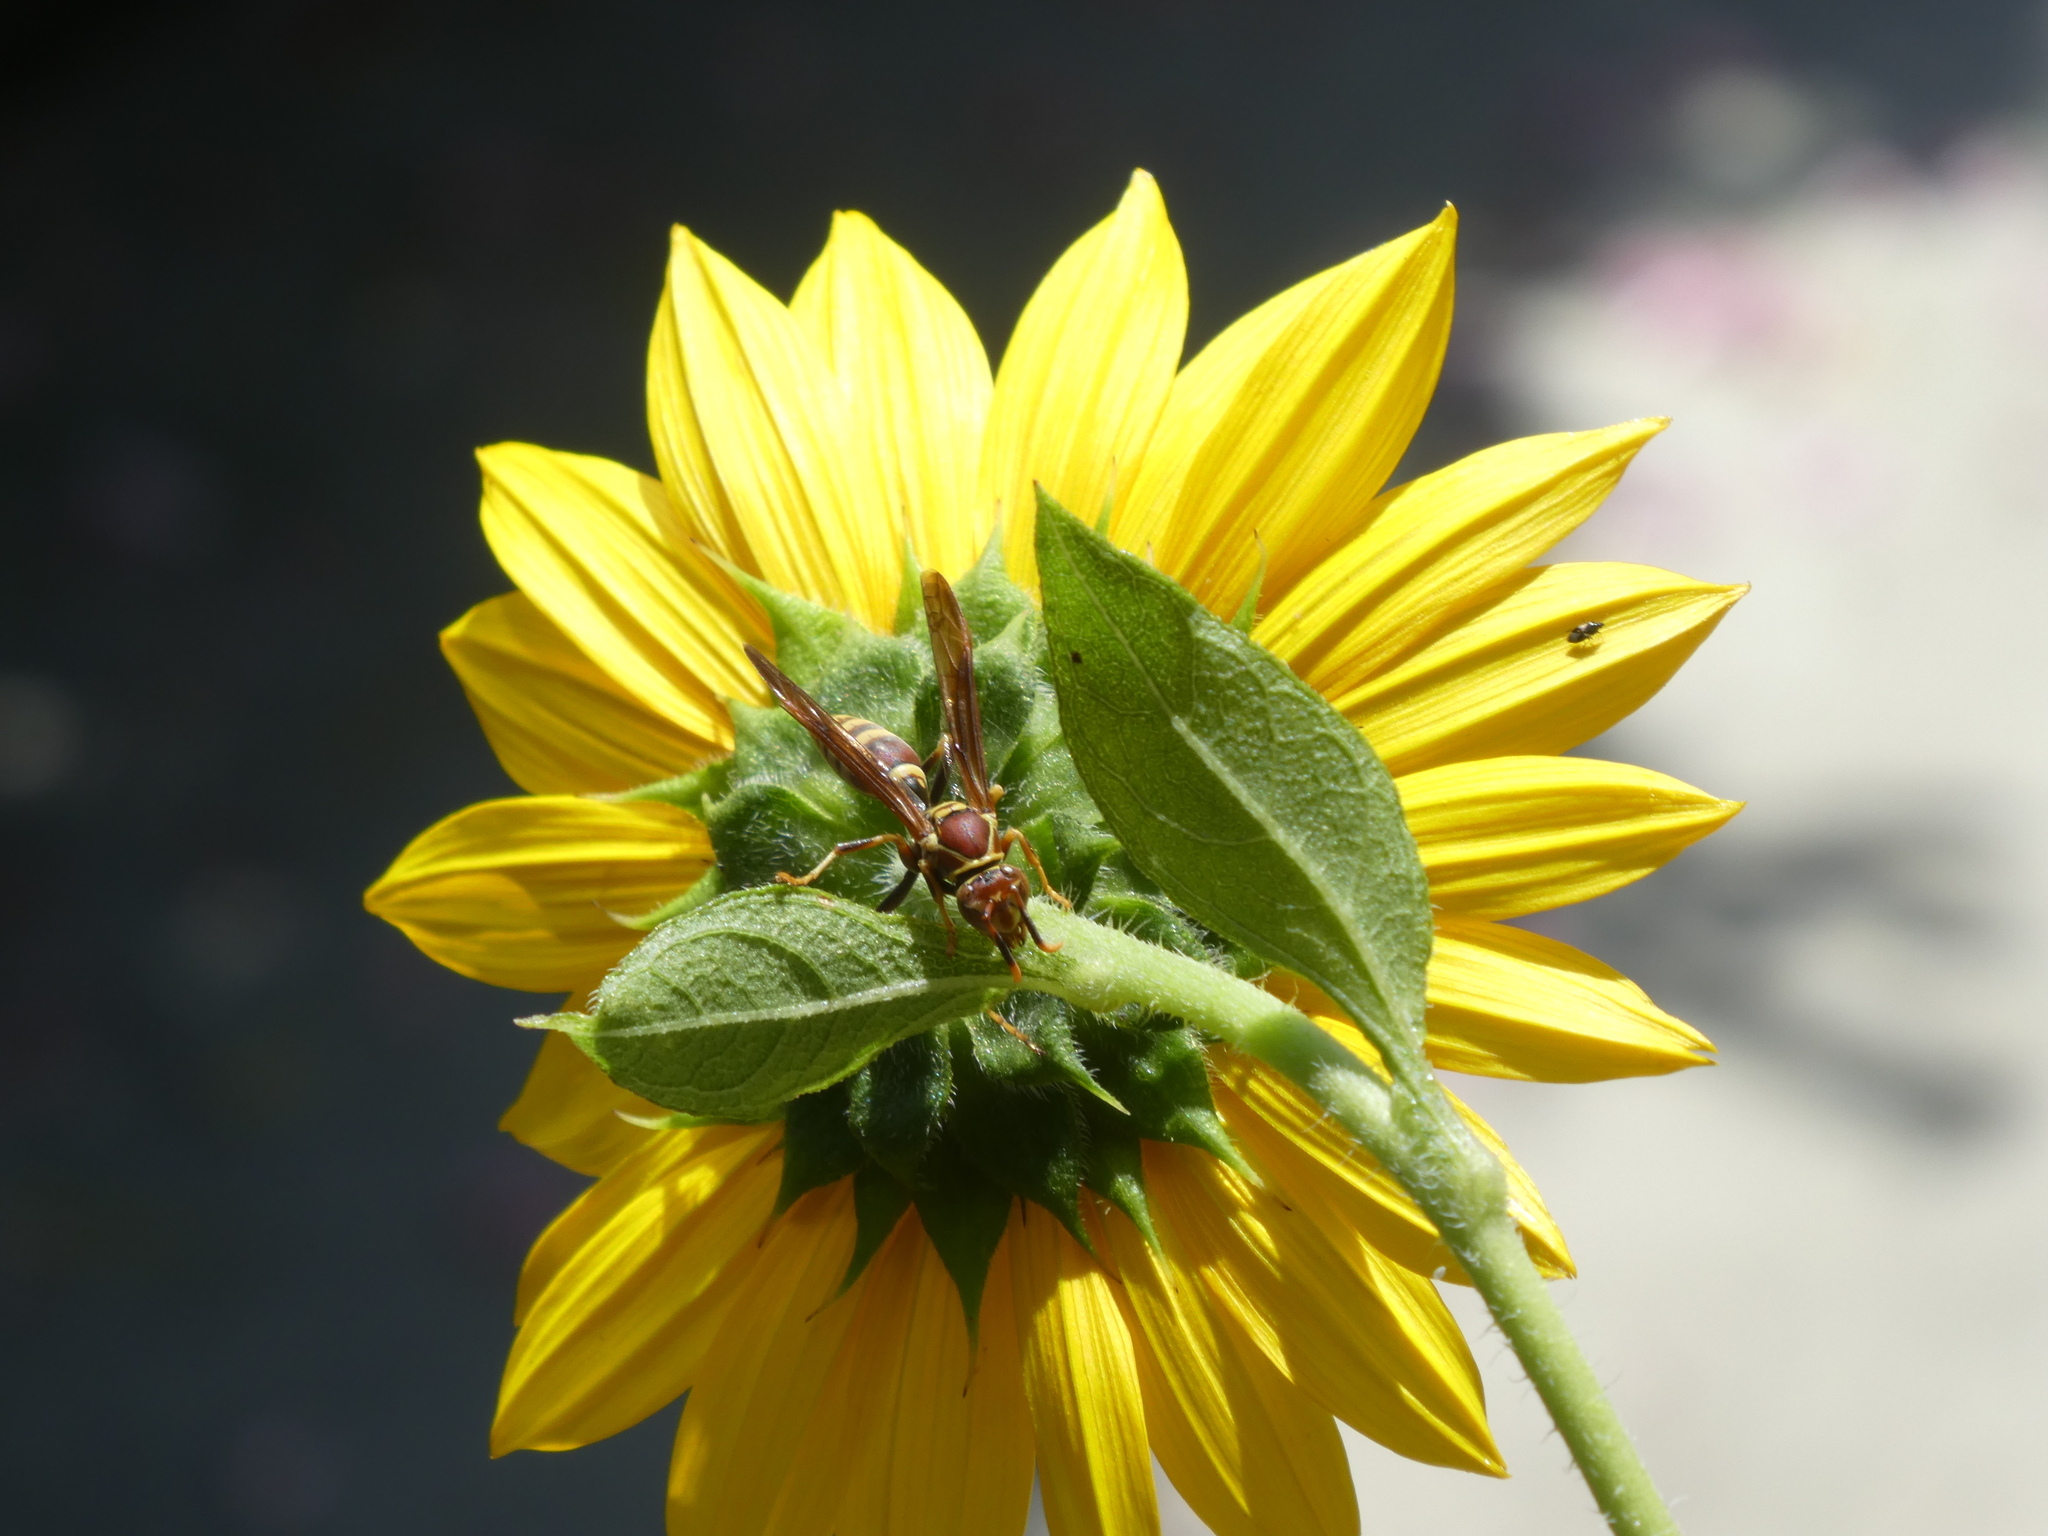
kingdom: Animalia
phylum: Arthropoda
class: Insecta
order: Hymenoptera
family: Eumenidae
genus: Polistes
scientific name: Polistes exclamans
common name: Paper wasp
